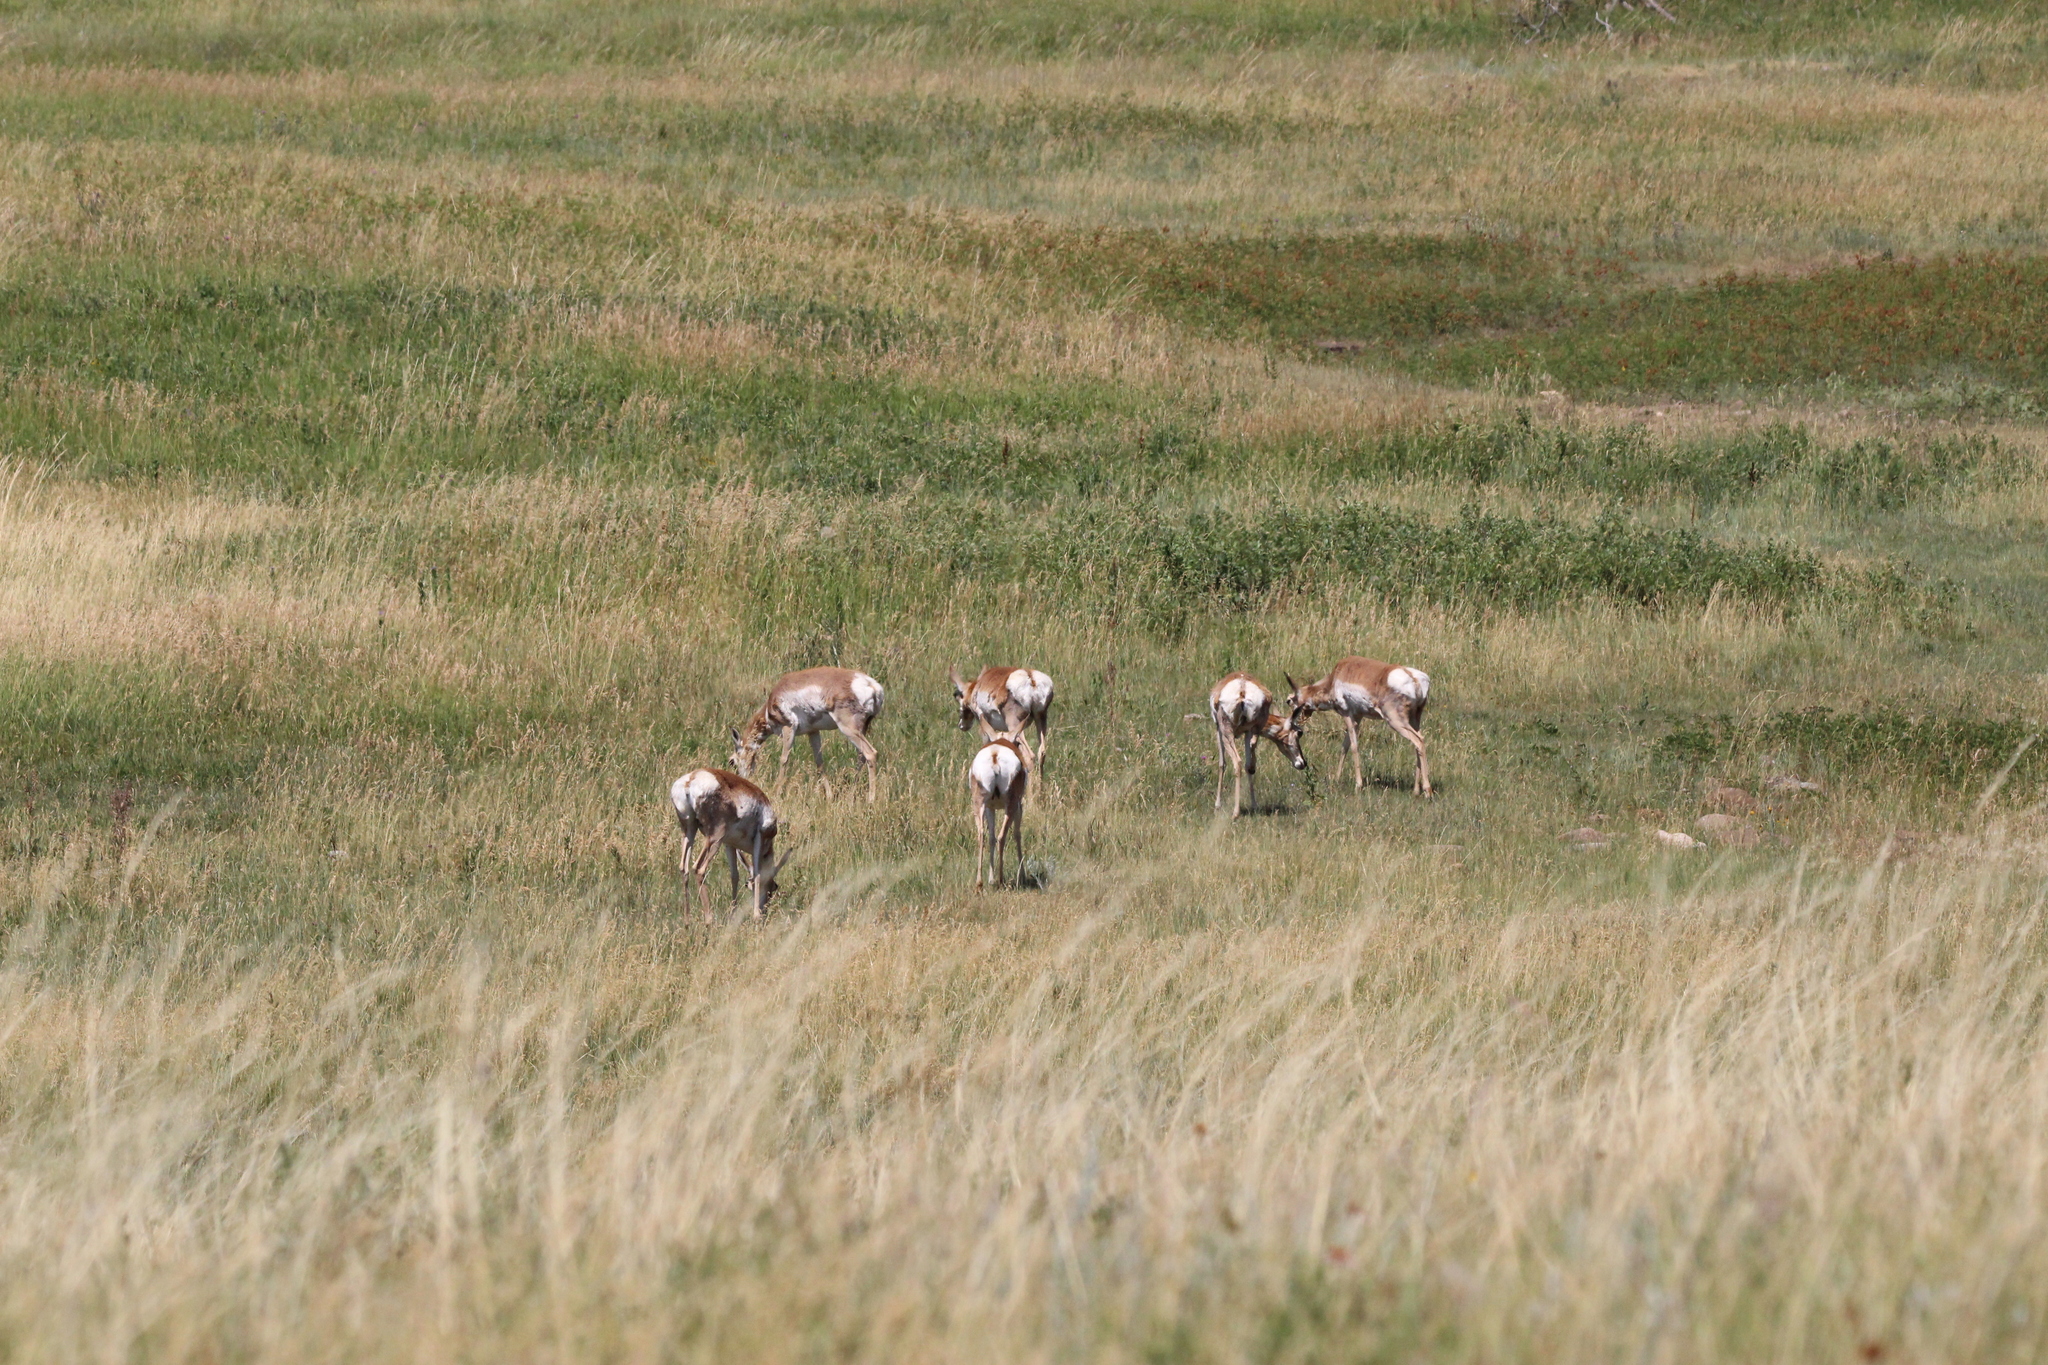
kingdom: Animalia
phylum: Chordata
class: Mammalia
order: Artiodactyla
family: Antilocapridae
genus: Antilocapra
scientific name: Antilocapra americana
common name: Pronghorn
